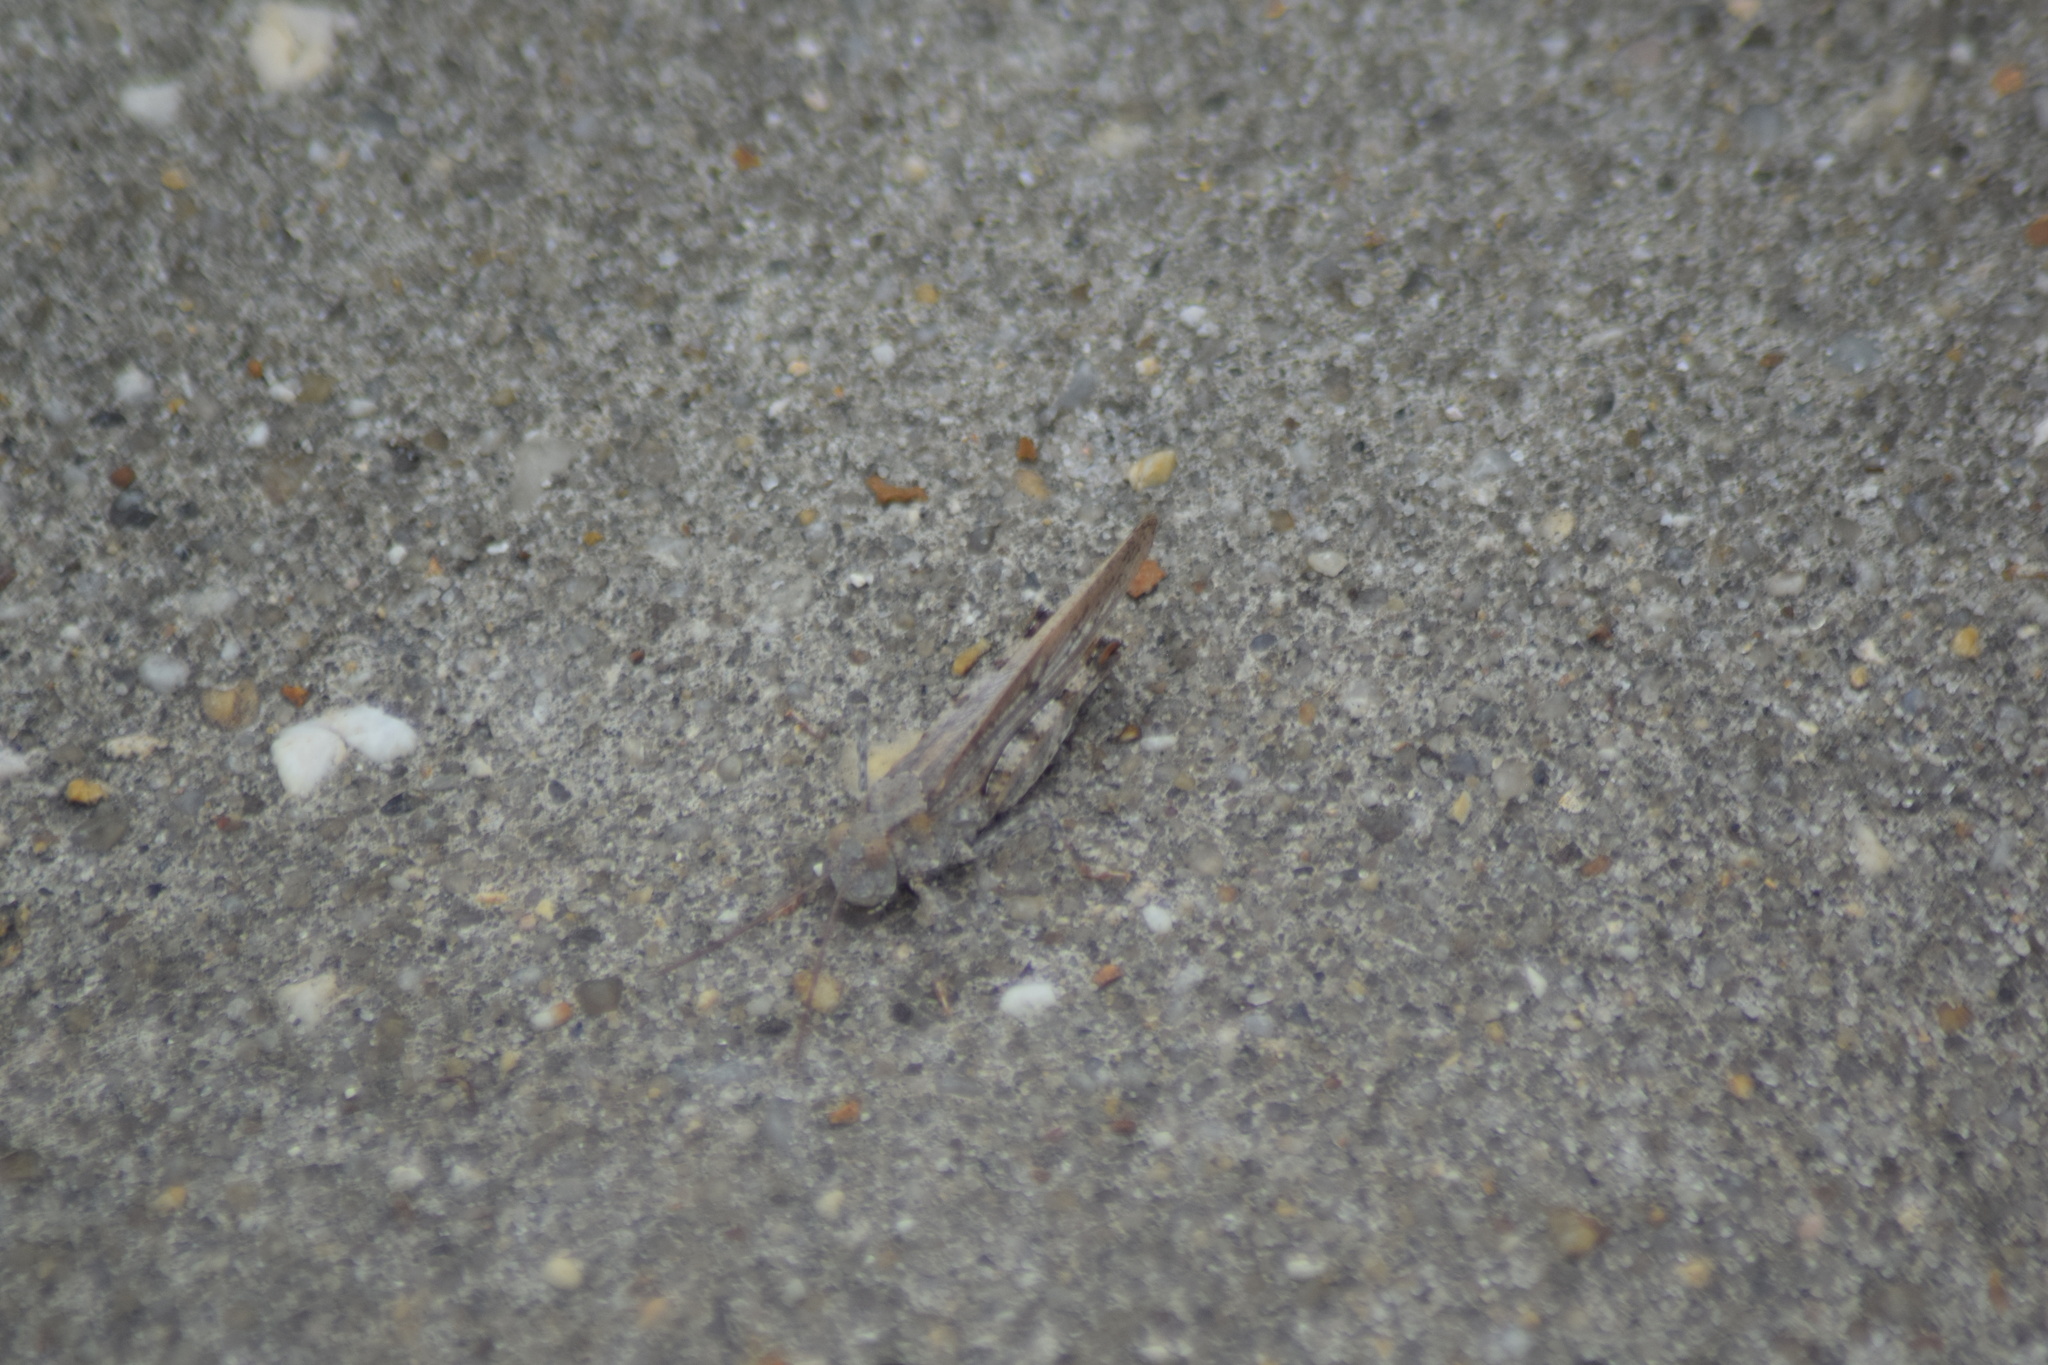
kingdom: Animalia
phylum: Arthropoda
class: Insecta
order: Orthoptera
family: Acrididae
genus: Trimerotropis
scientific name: Trimerotropis maritima
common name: Seaside locust
